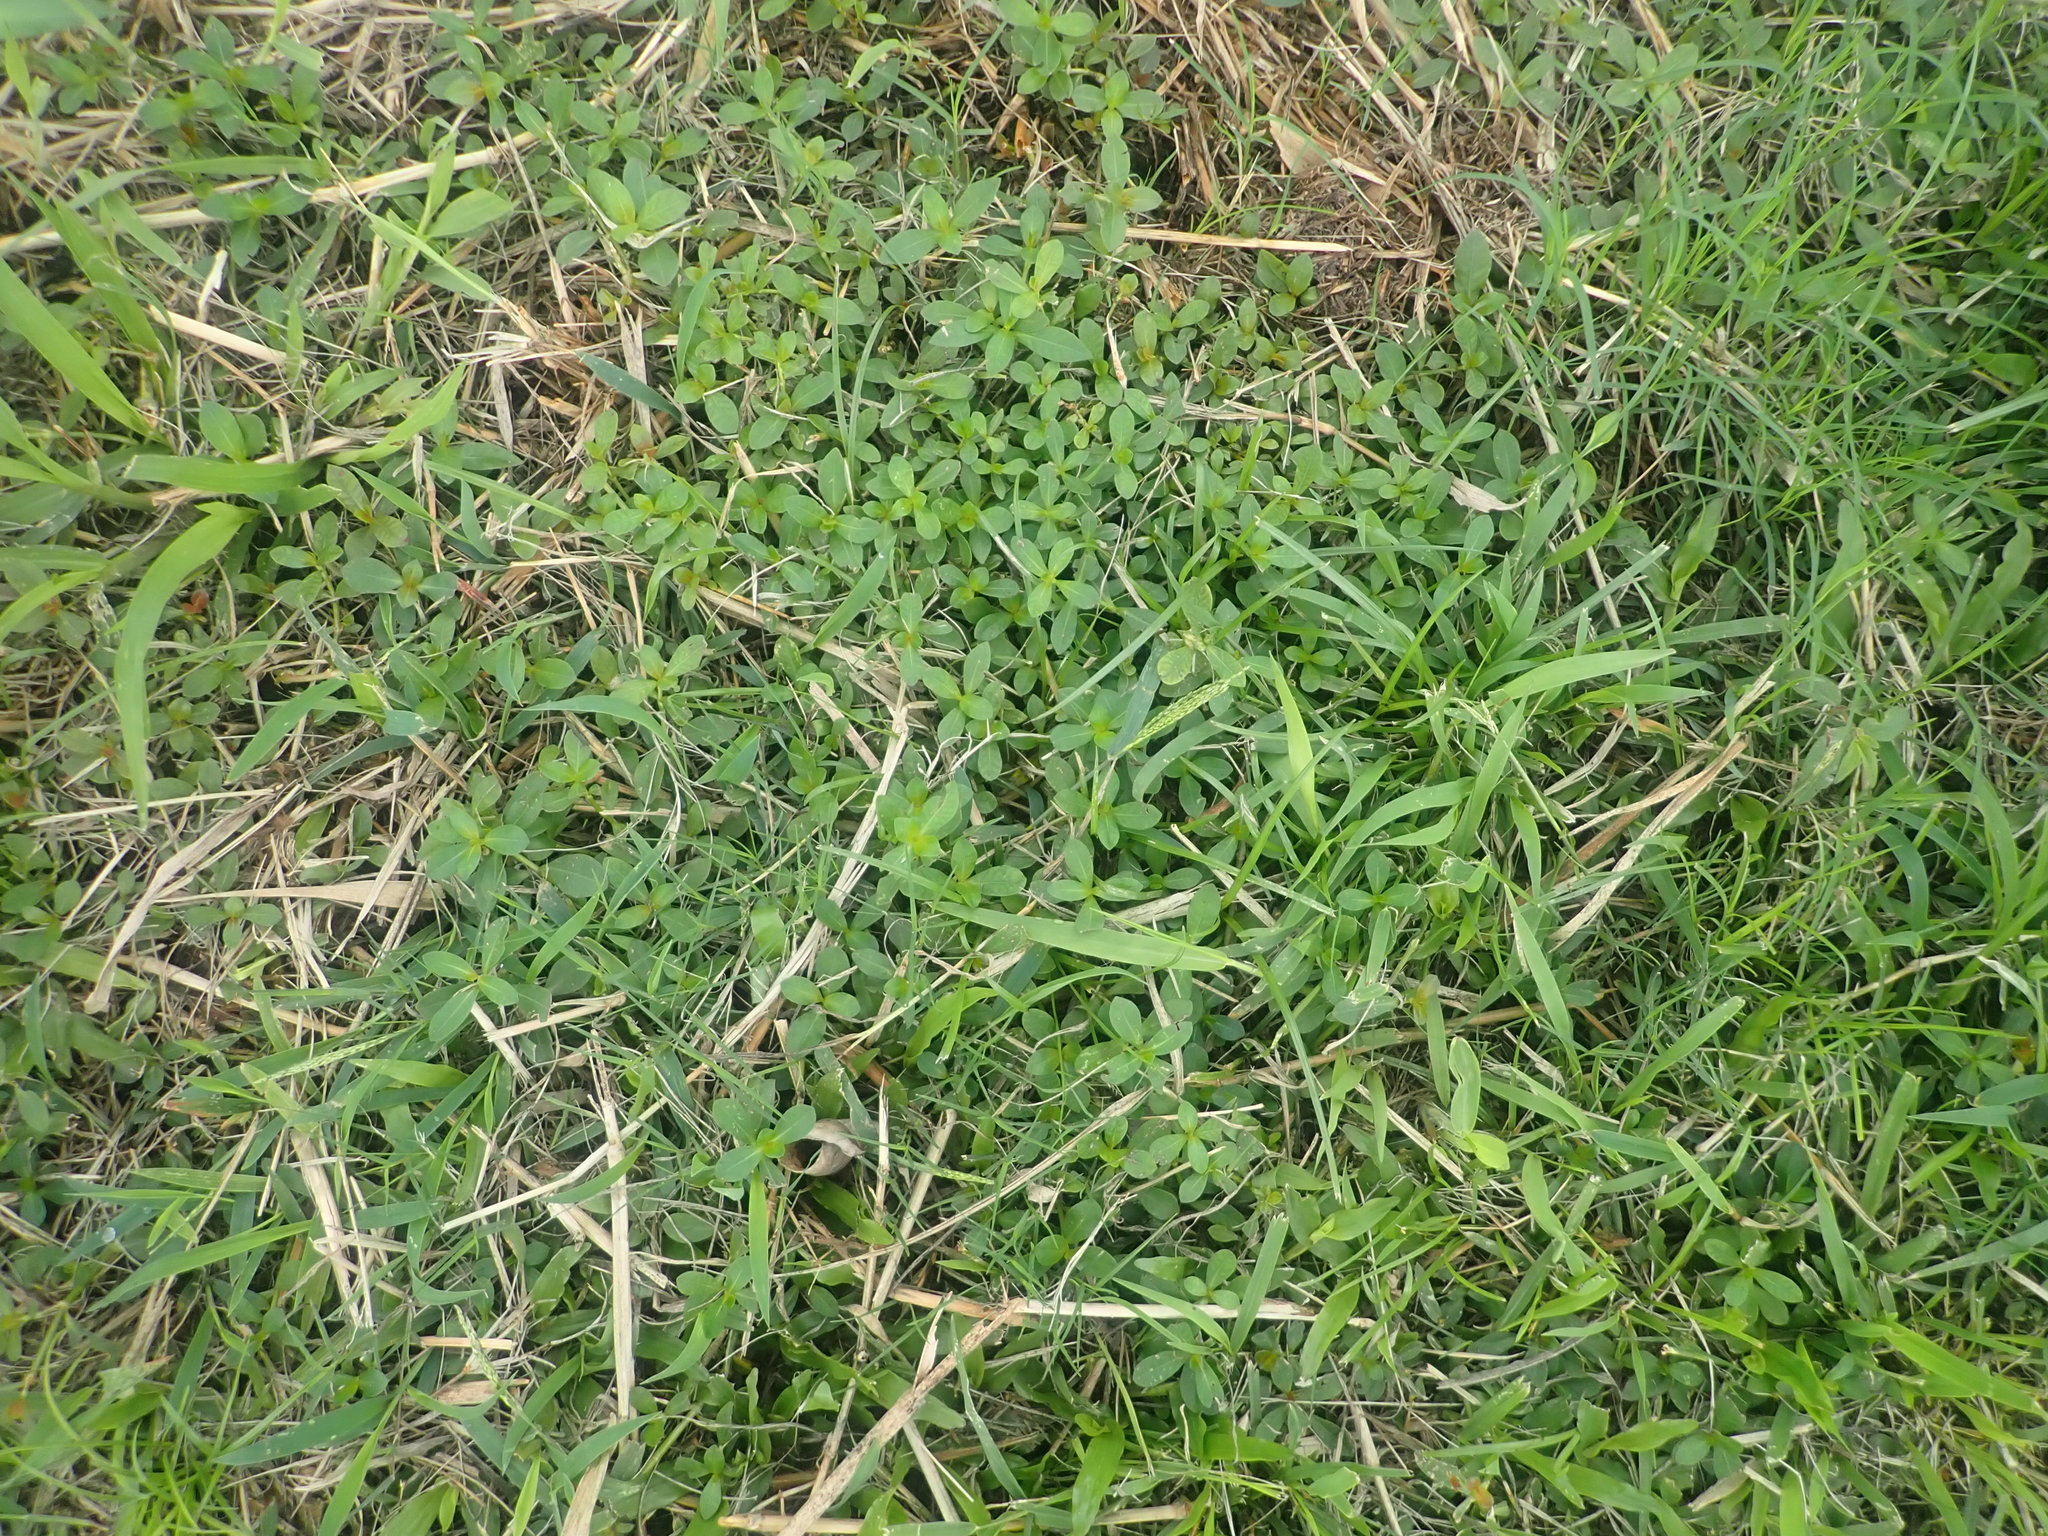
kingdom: Plantae
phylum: Tracheophyta
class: Magnoliopsida
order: Caryophyllales
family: Amaranthaceae
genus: Alternanthera
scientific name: Alternanthera philoxeroides
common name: Alligatorweed
